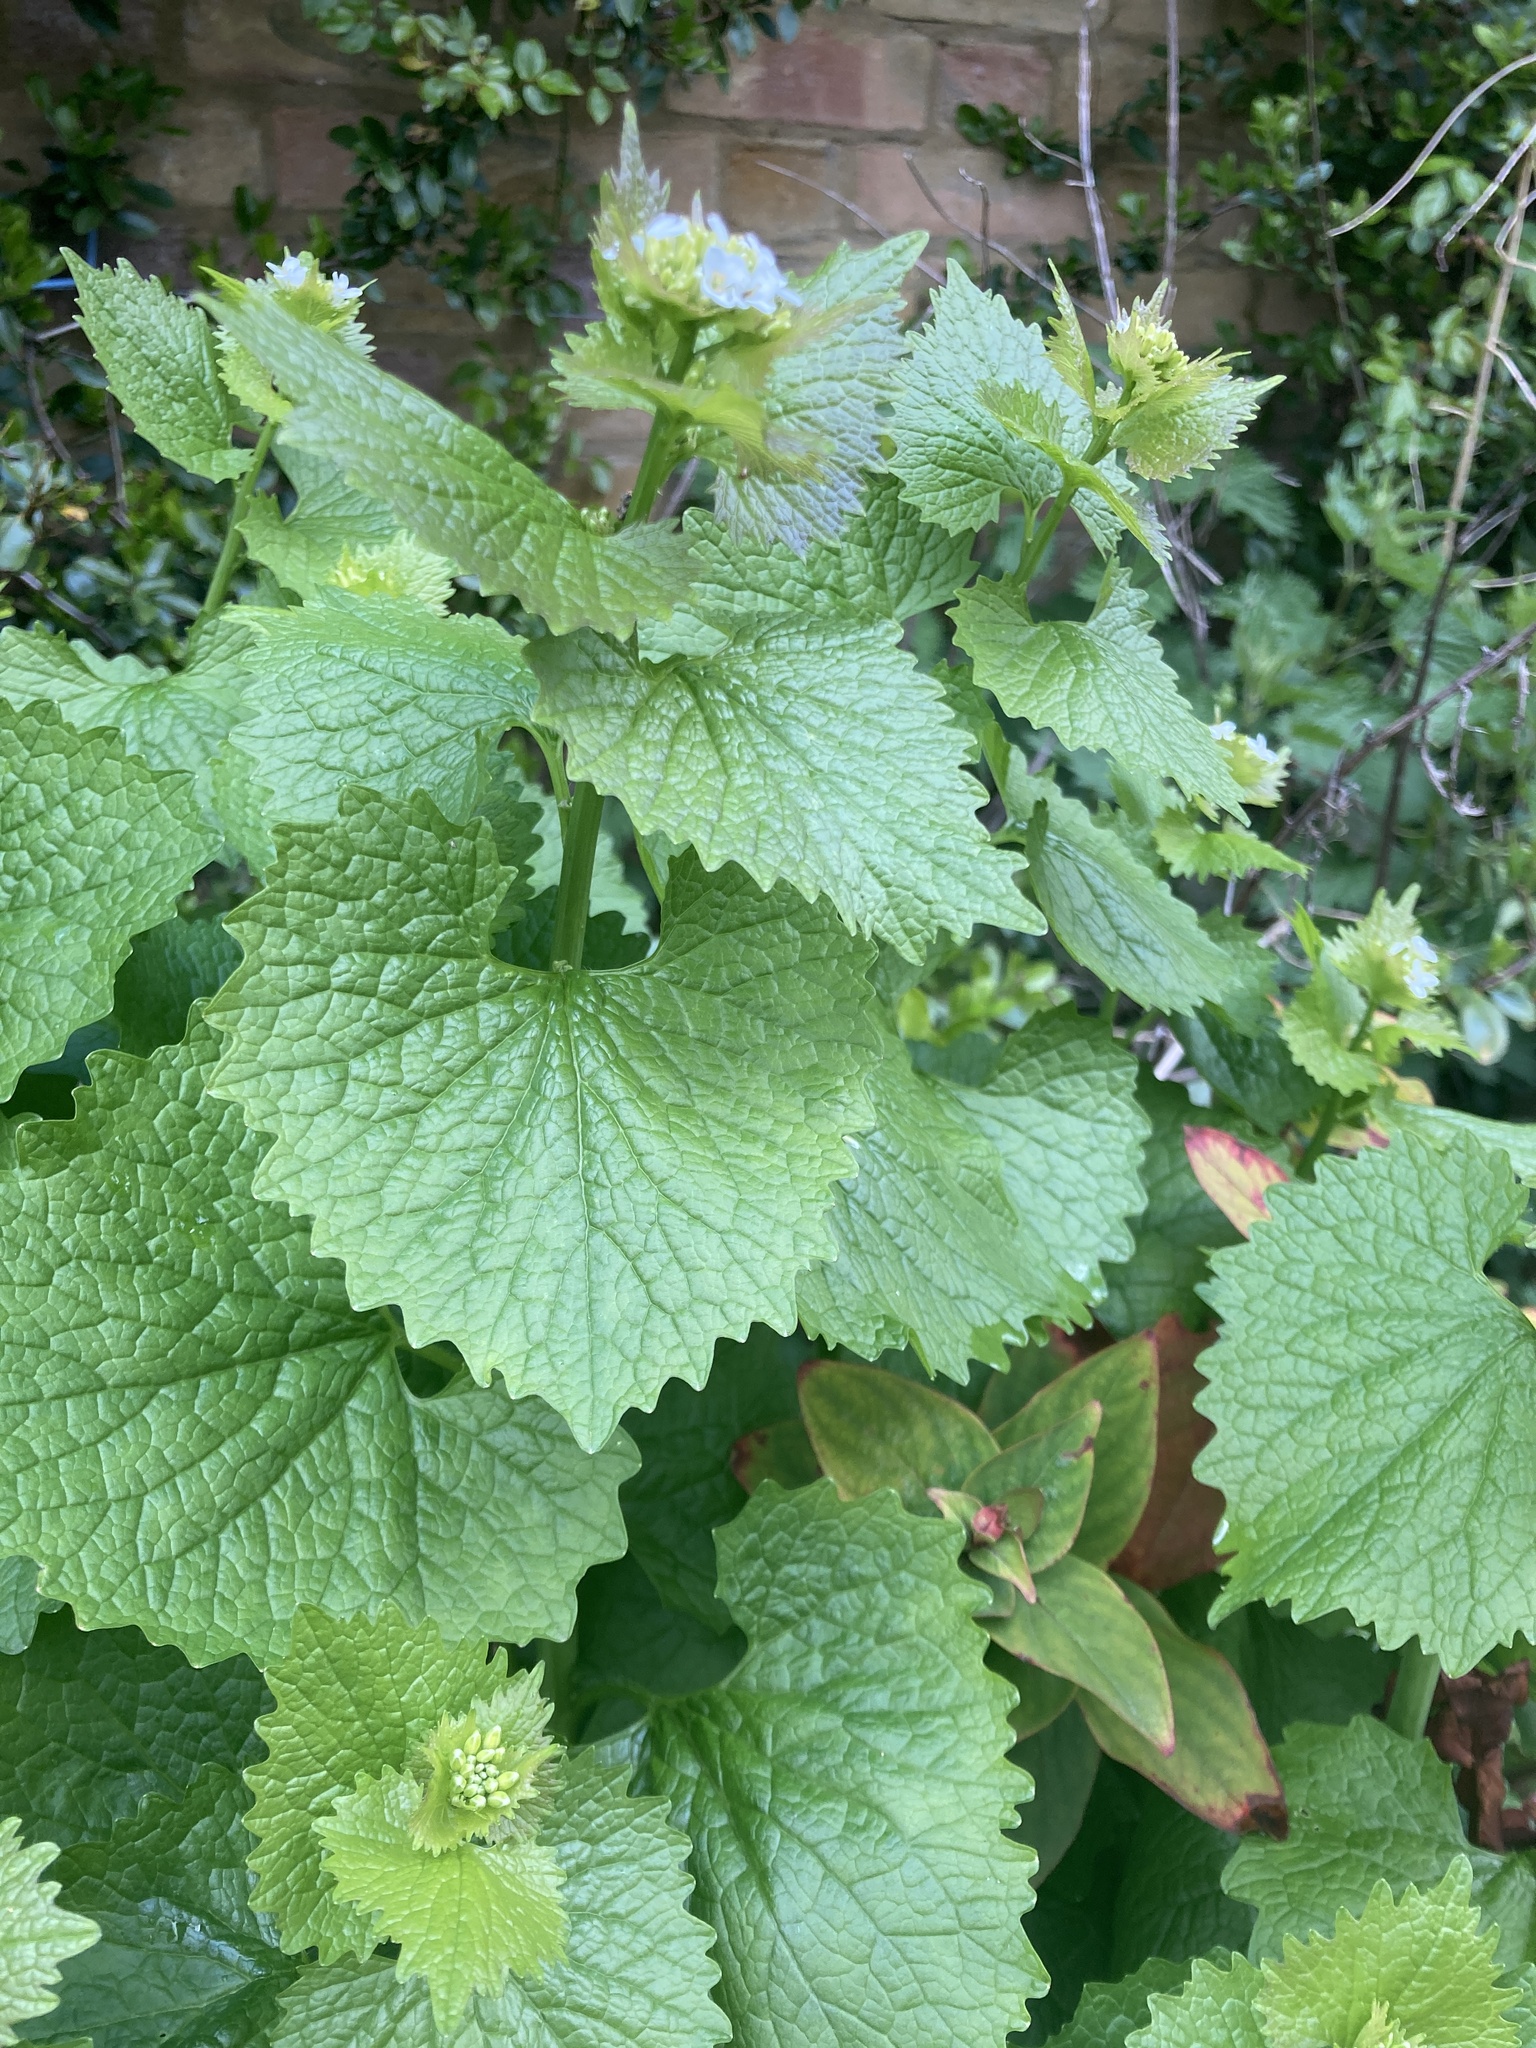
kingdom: Plantae
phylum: Tracheophyta
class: Magnoliopsida
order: Brassicales
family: Brassicaceae
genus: Alliaria
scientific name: Alliaria petiolata
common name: Garlic mustard
